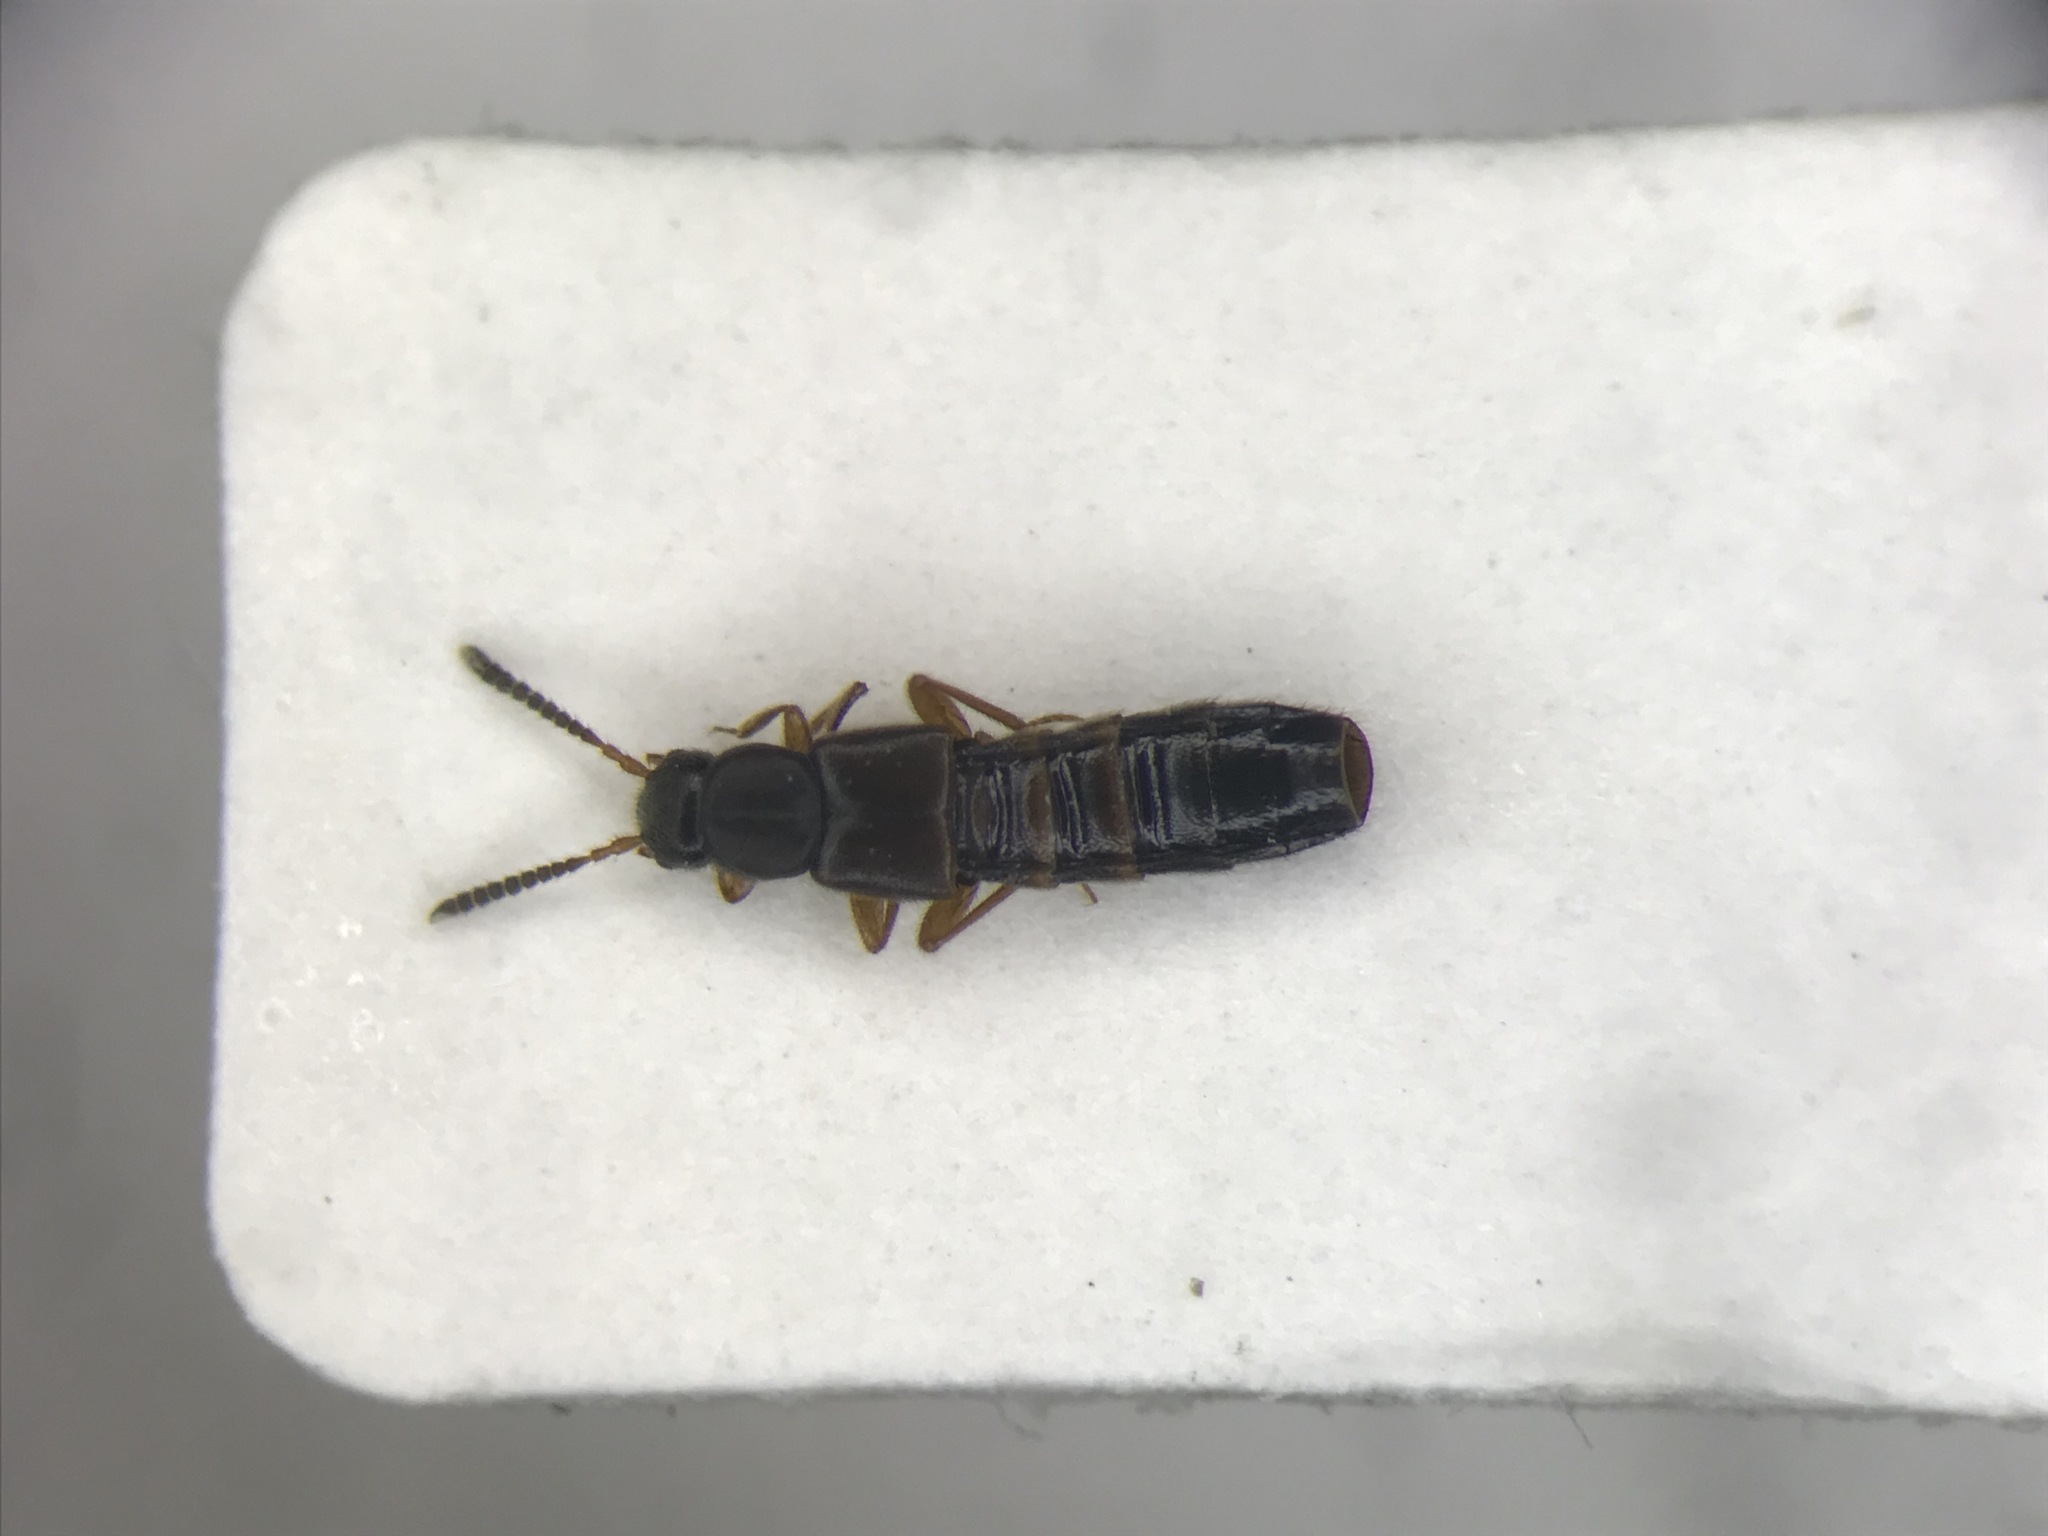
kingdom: Animalia
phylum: Arthropoda
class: Insecta
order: Coleoptera
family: Staphylinidae
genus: Dinaraea
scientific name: Dinaraea aequata
